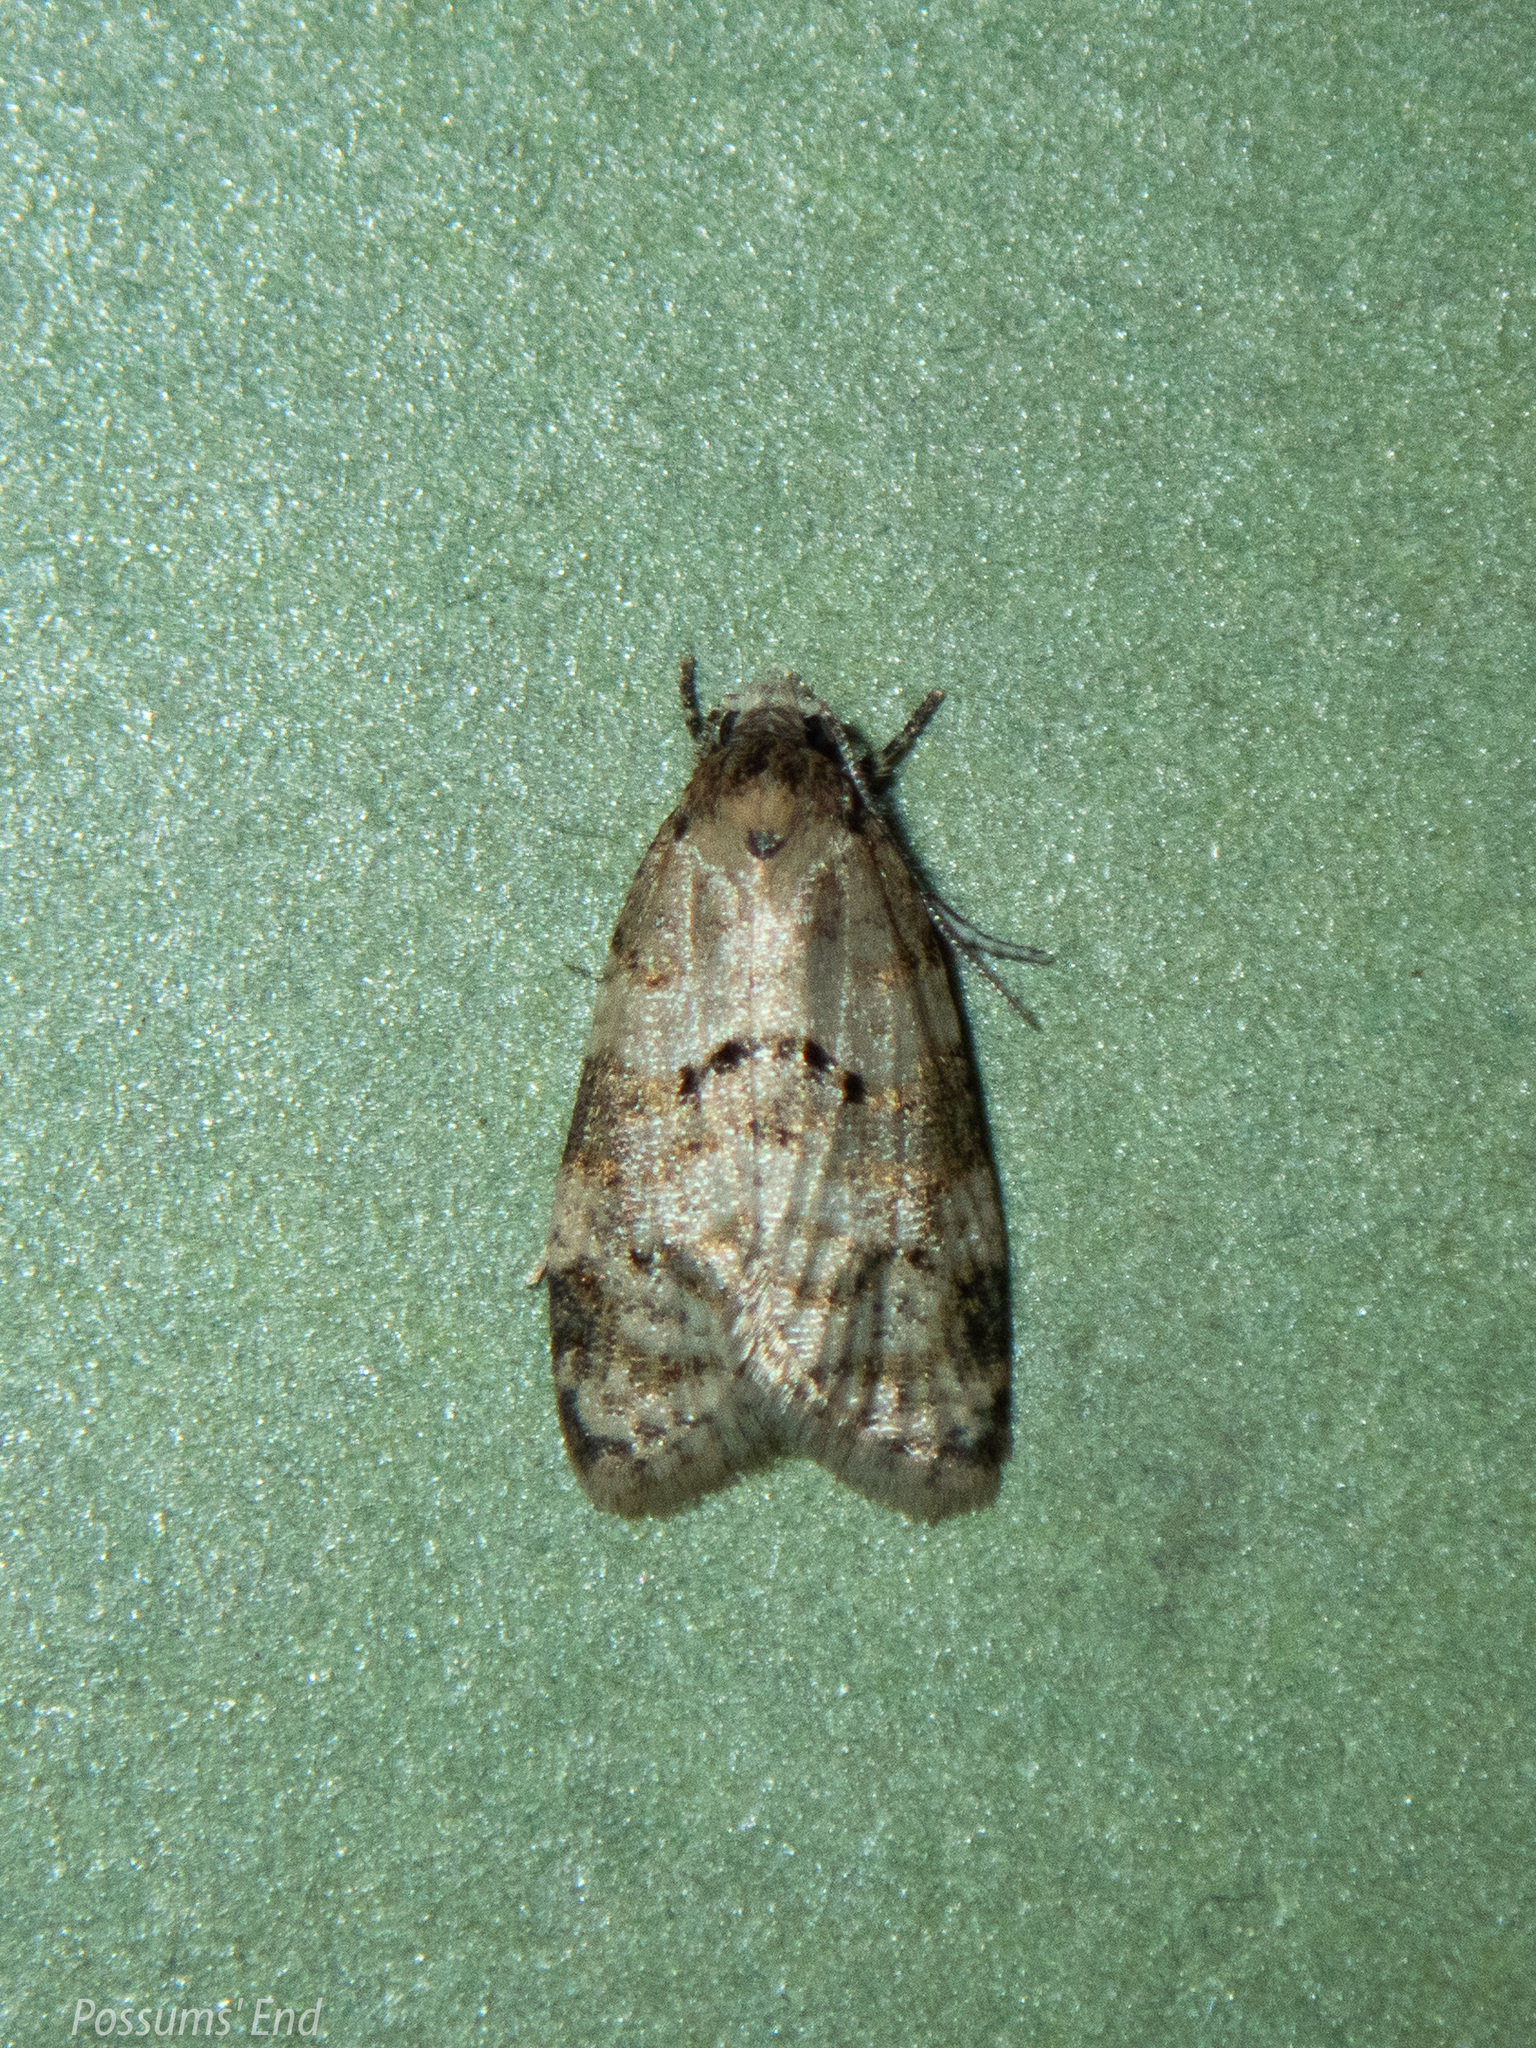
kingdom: Animalia
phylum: Arthropoda
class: Insecta
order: Lepidoptera
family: Tortricidae
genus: Dipterina
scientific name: Dipterina imbriferana
